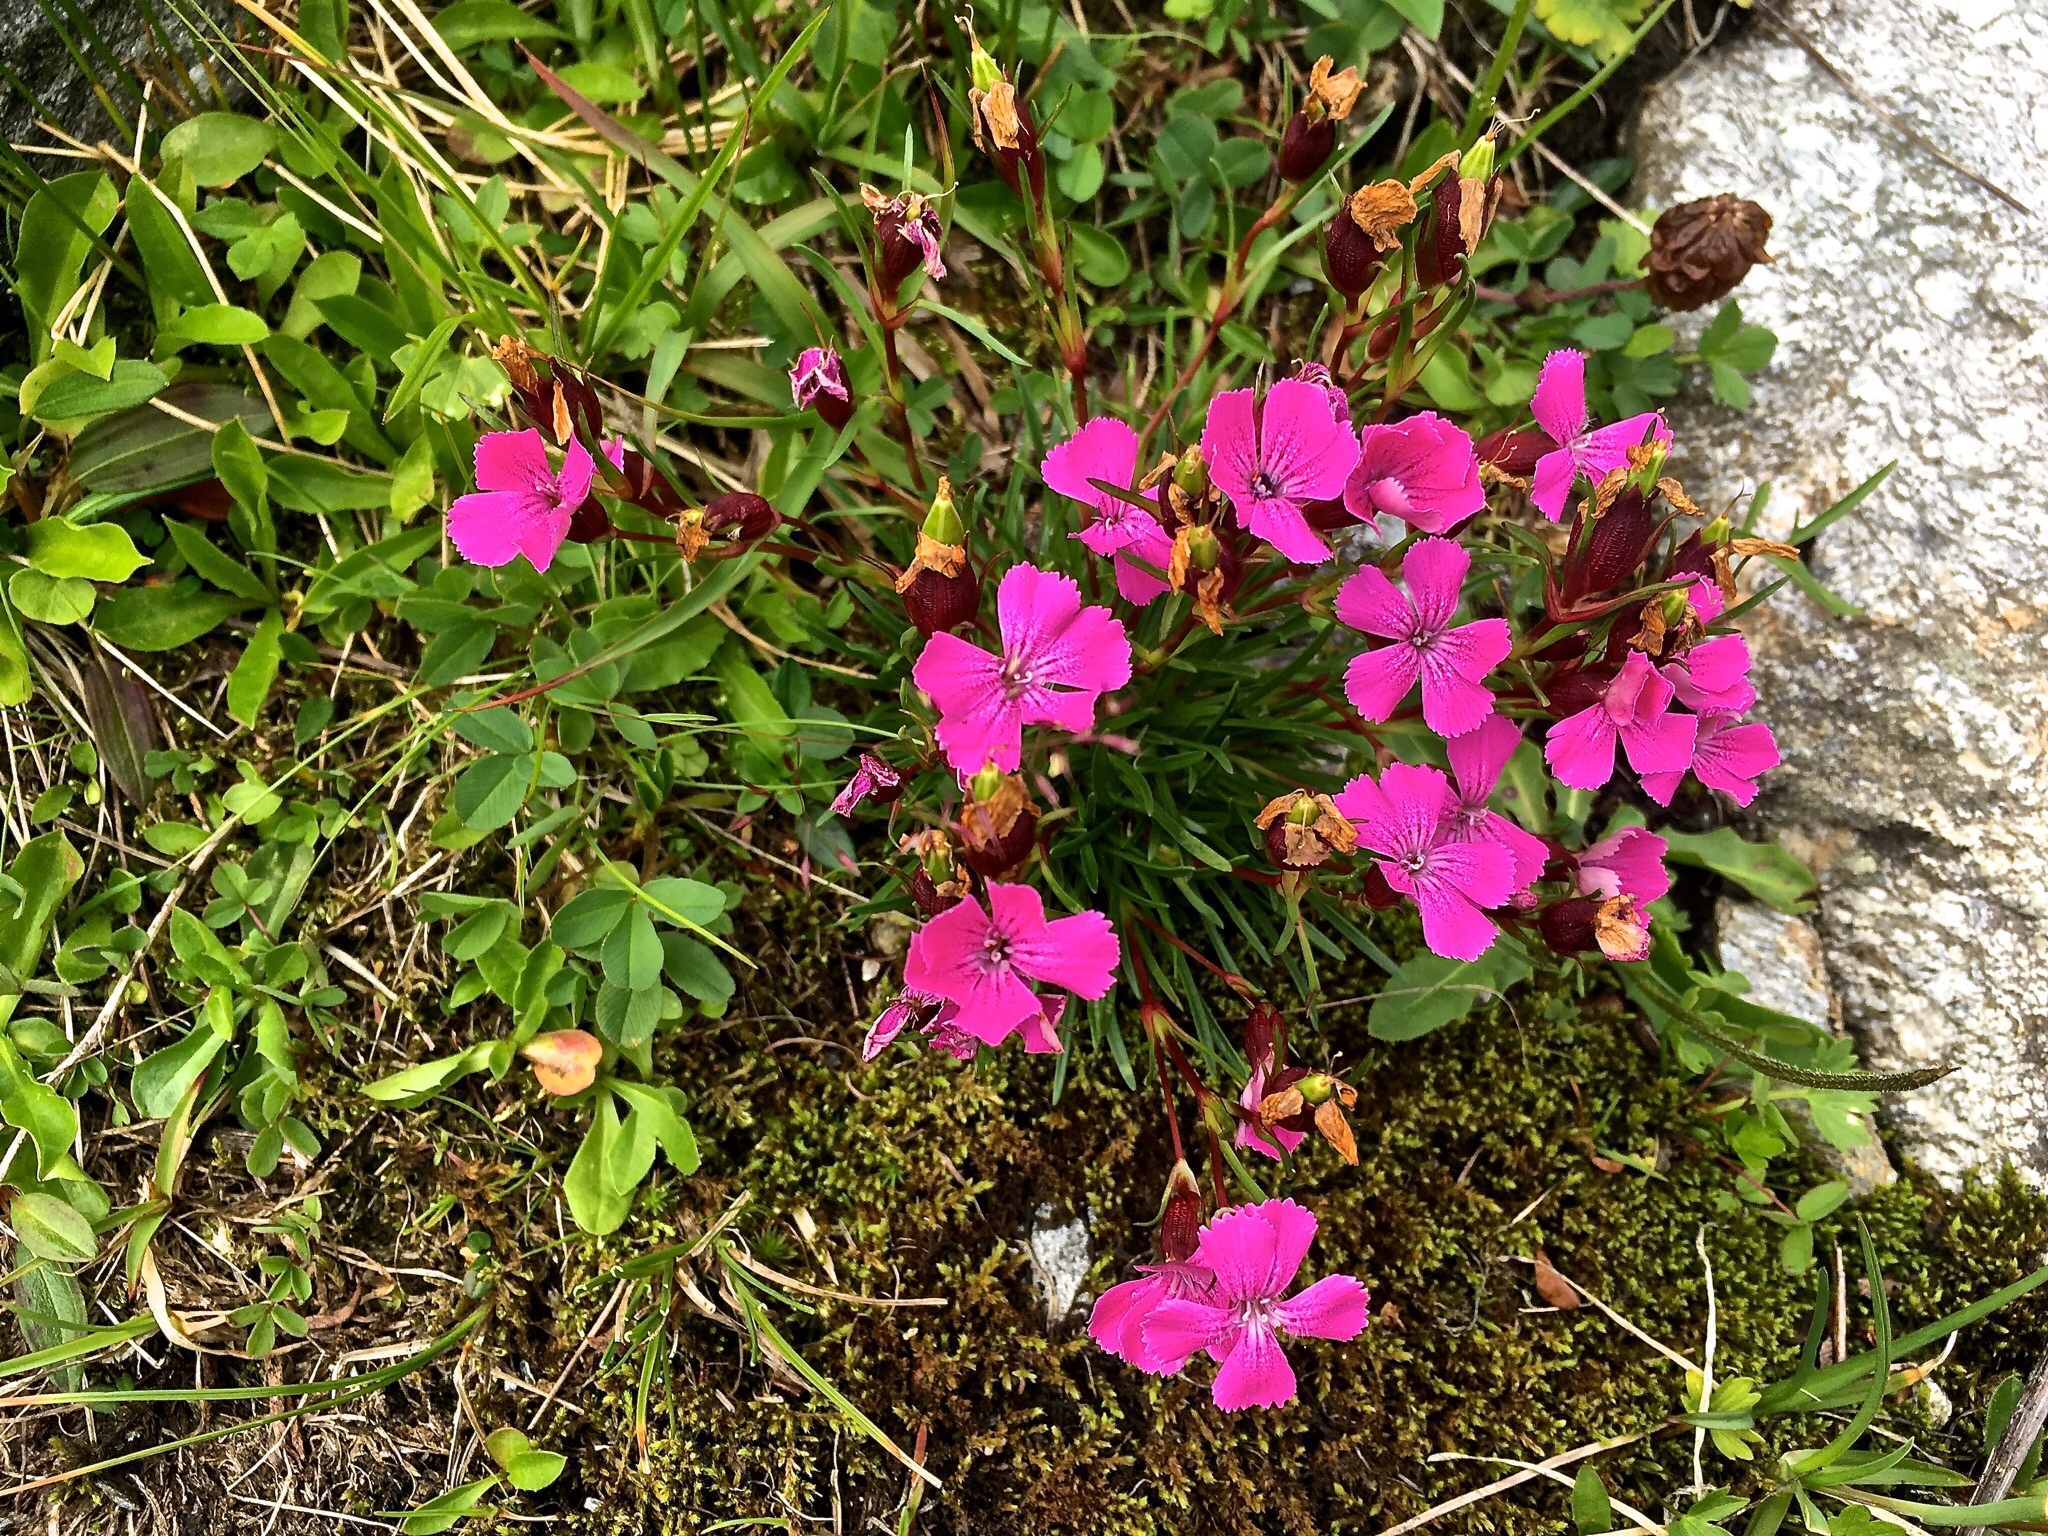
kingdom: Plantae
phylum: Tracheophyta
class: Magnoliopsida
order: Caryophyllales
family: Caryophyllaceae
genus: Dianthus
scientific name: Dianthus glacialis
